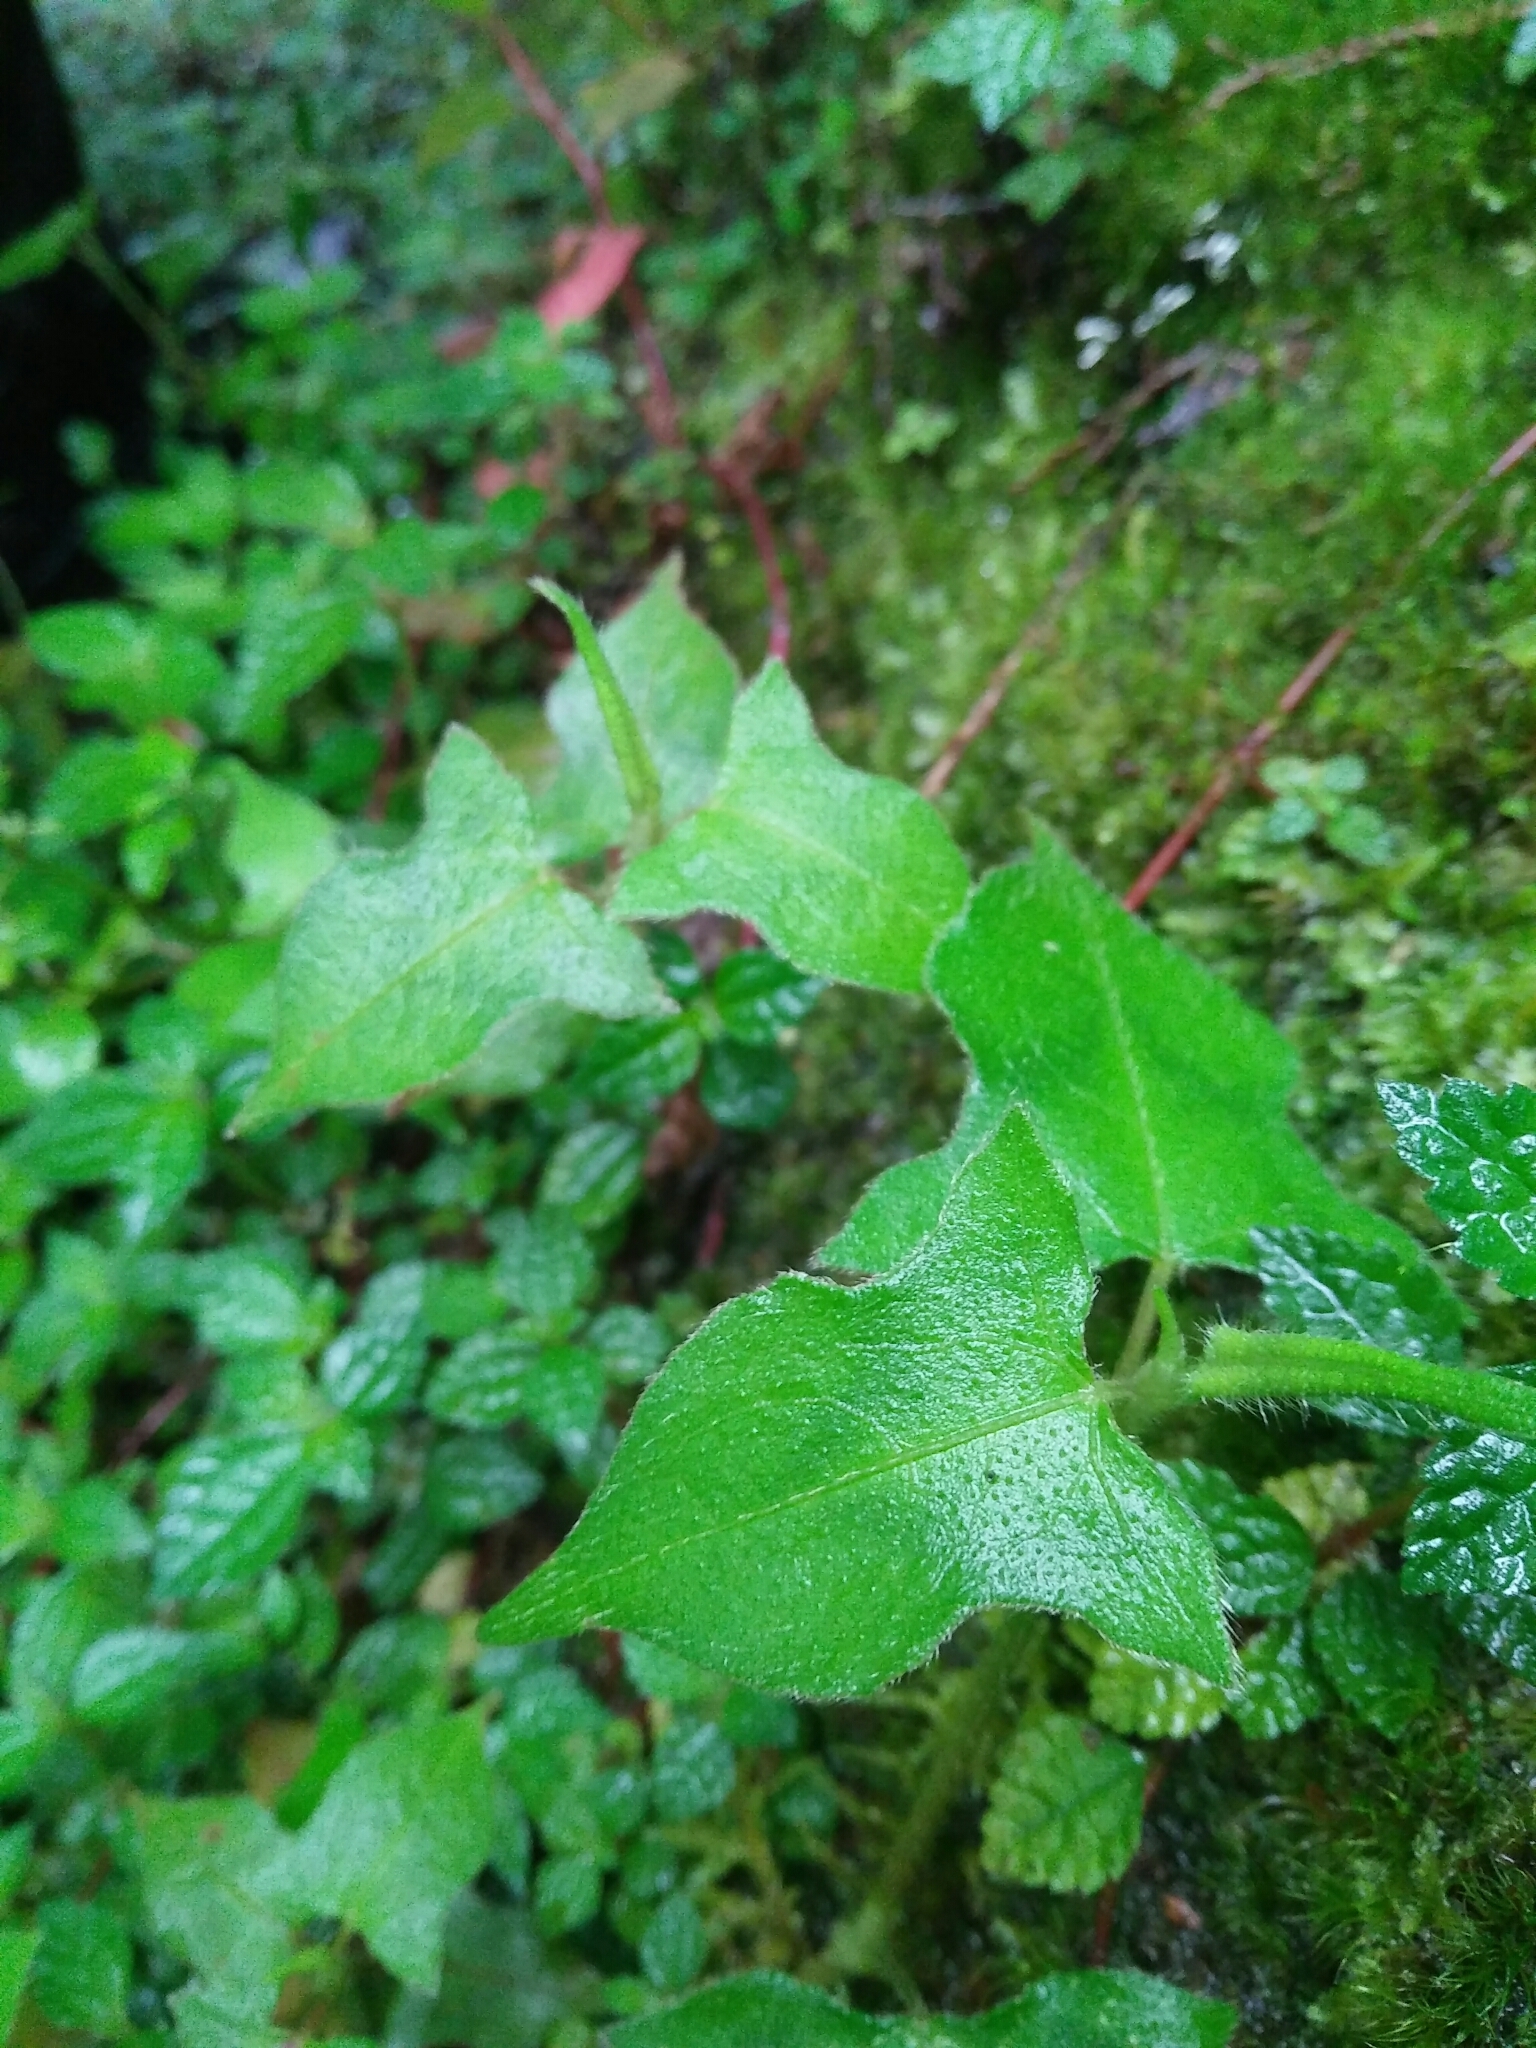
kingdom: Plantae
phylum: Tracheophyta
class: Magnoliopsida
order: Caryophyllales
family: Polygonaceae
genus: Persicaria
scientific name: Persicaria biconvexa
